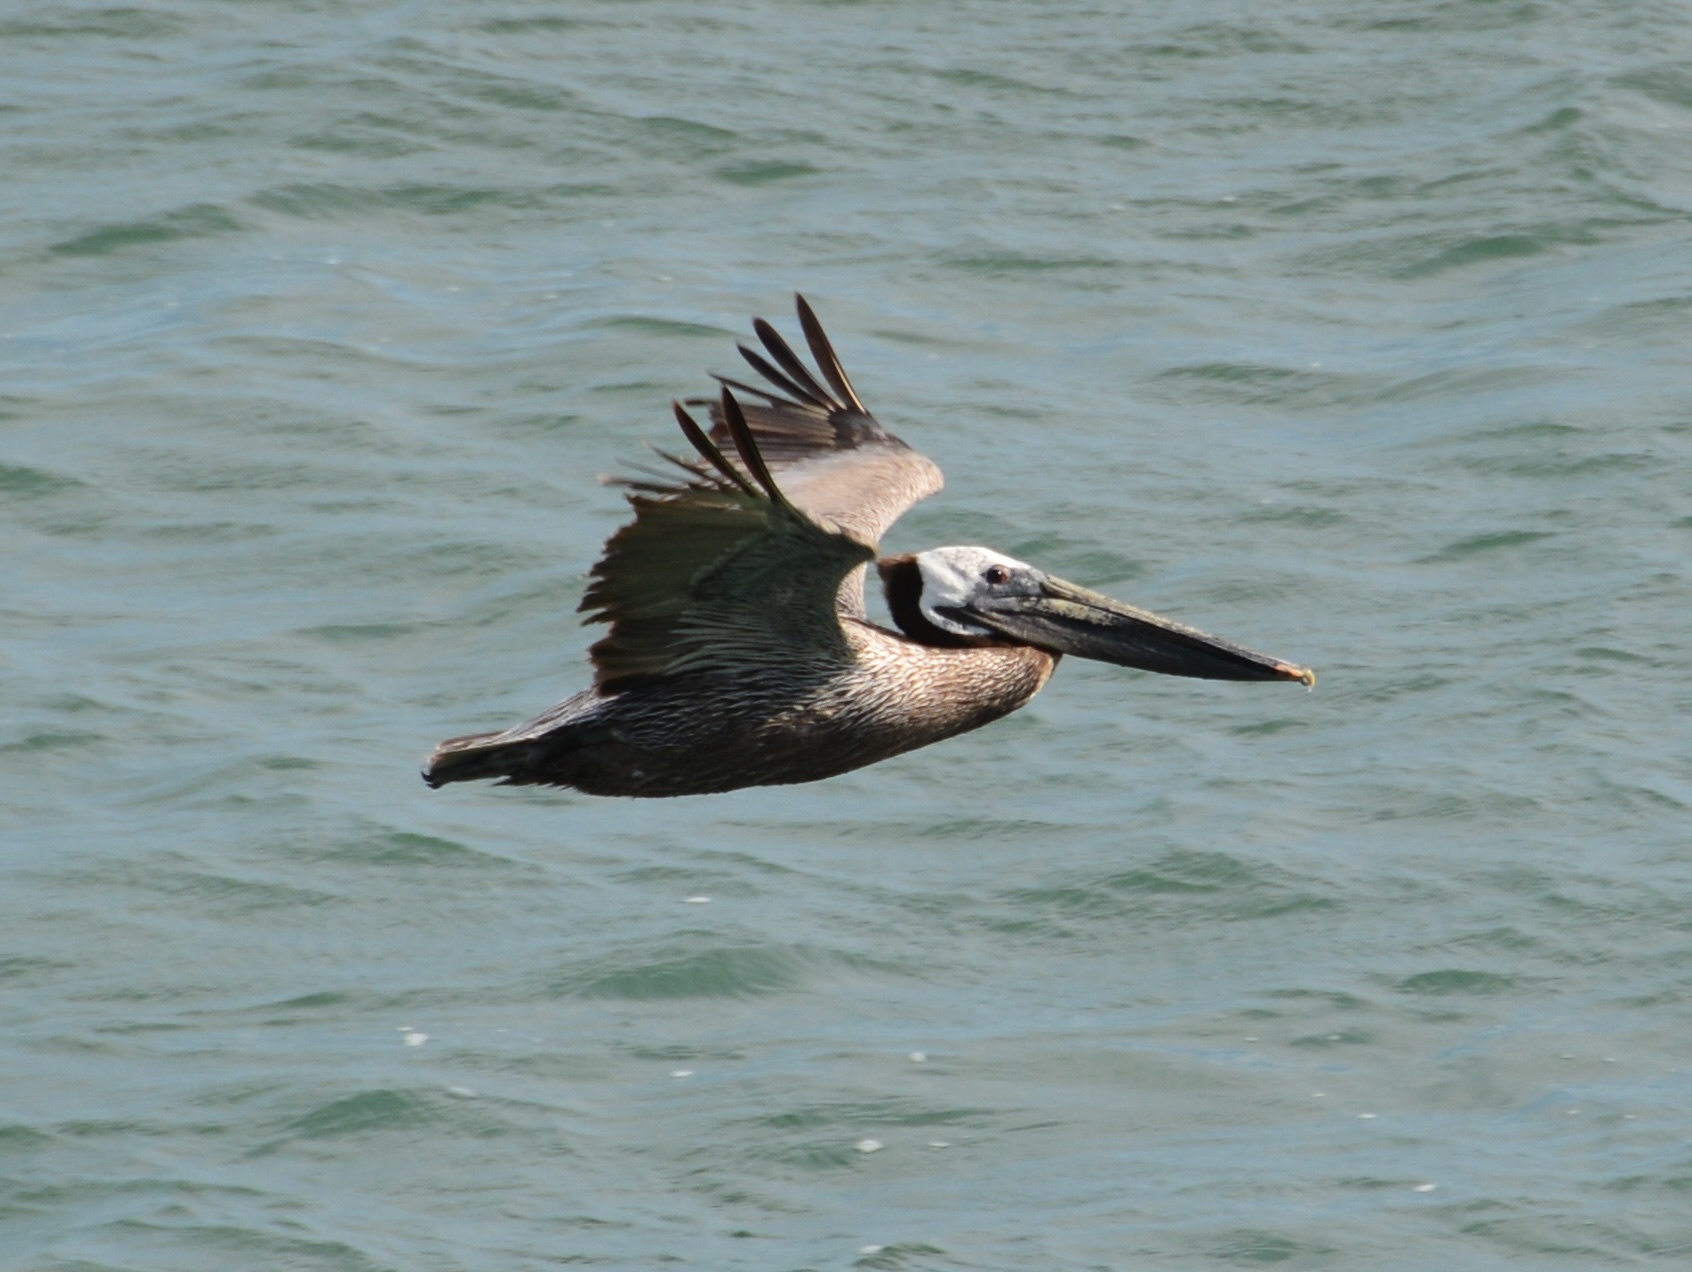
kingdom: Animalia
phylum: Chordata
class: Aves
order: Pelecaniformes
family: Pelecanidae
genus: Pelecanus
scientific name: Pelecanus occidentalis
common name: Brown pelican
